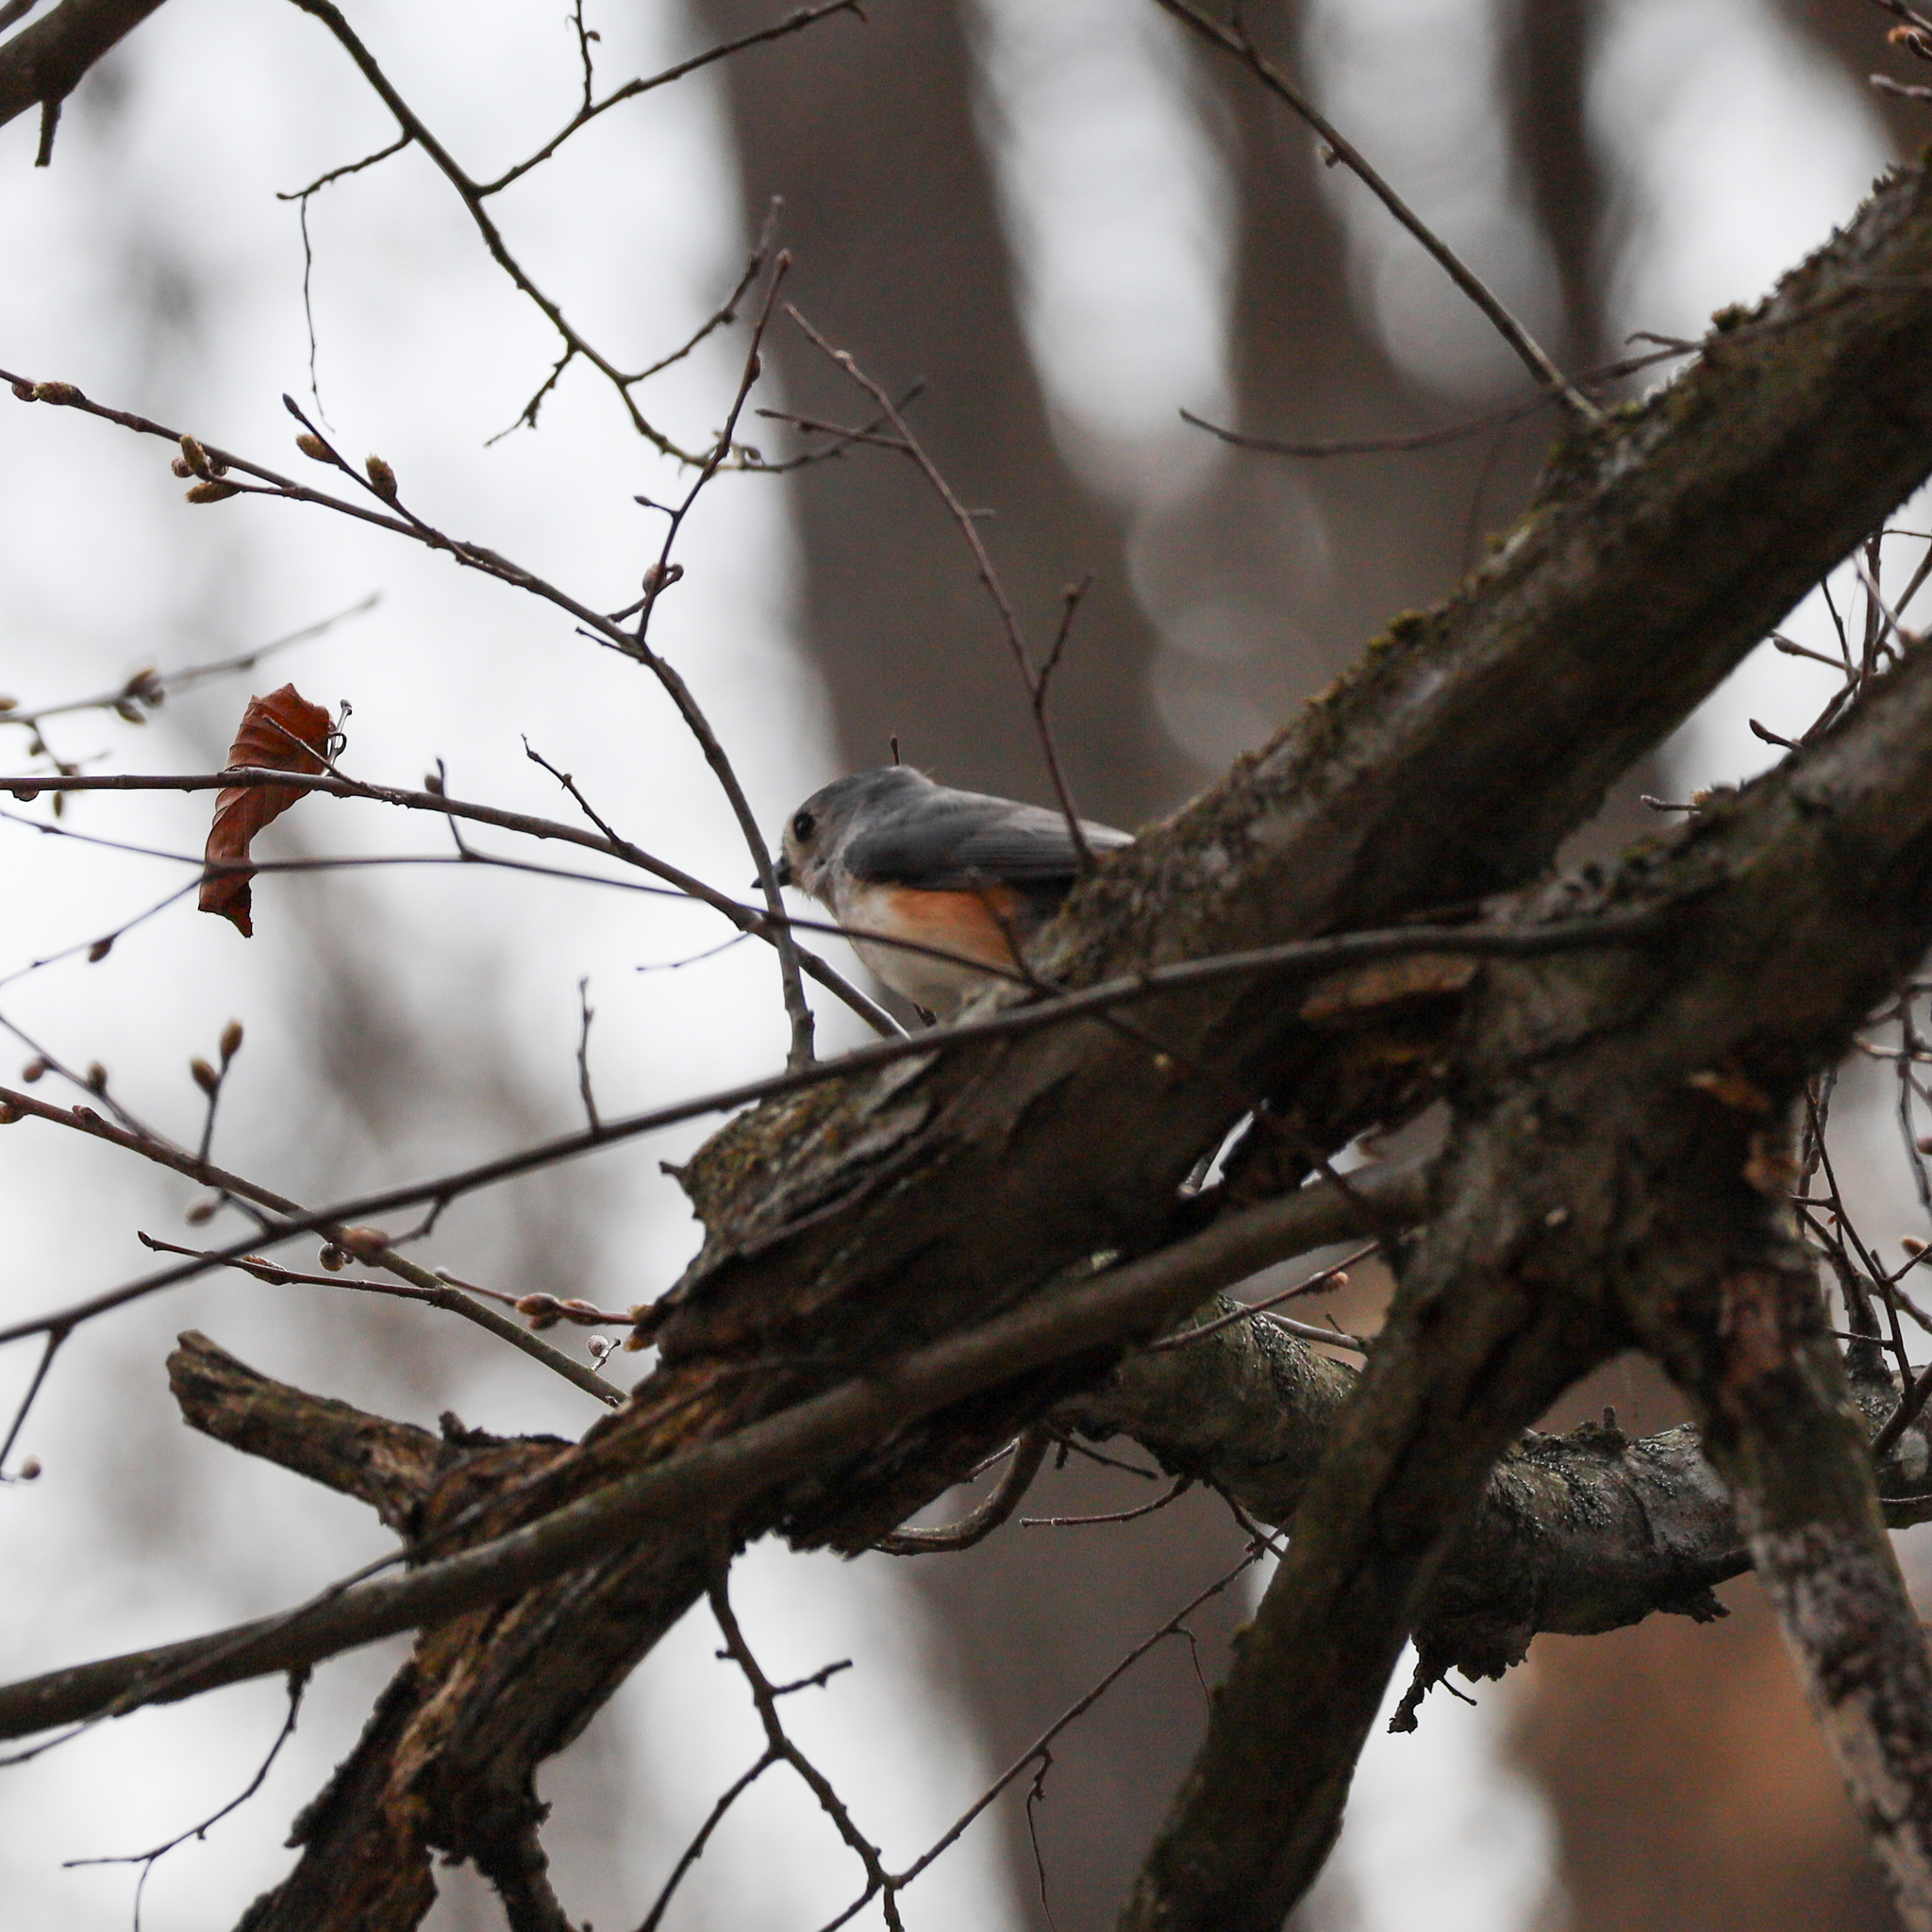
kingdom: Animalia
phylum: Chordata
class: Aves
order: Passeriformes
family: Paridae
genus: Baeolophus
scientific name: Baeolophus bicolor
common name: Tufted titmouse
